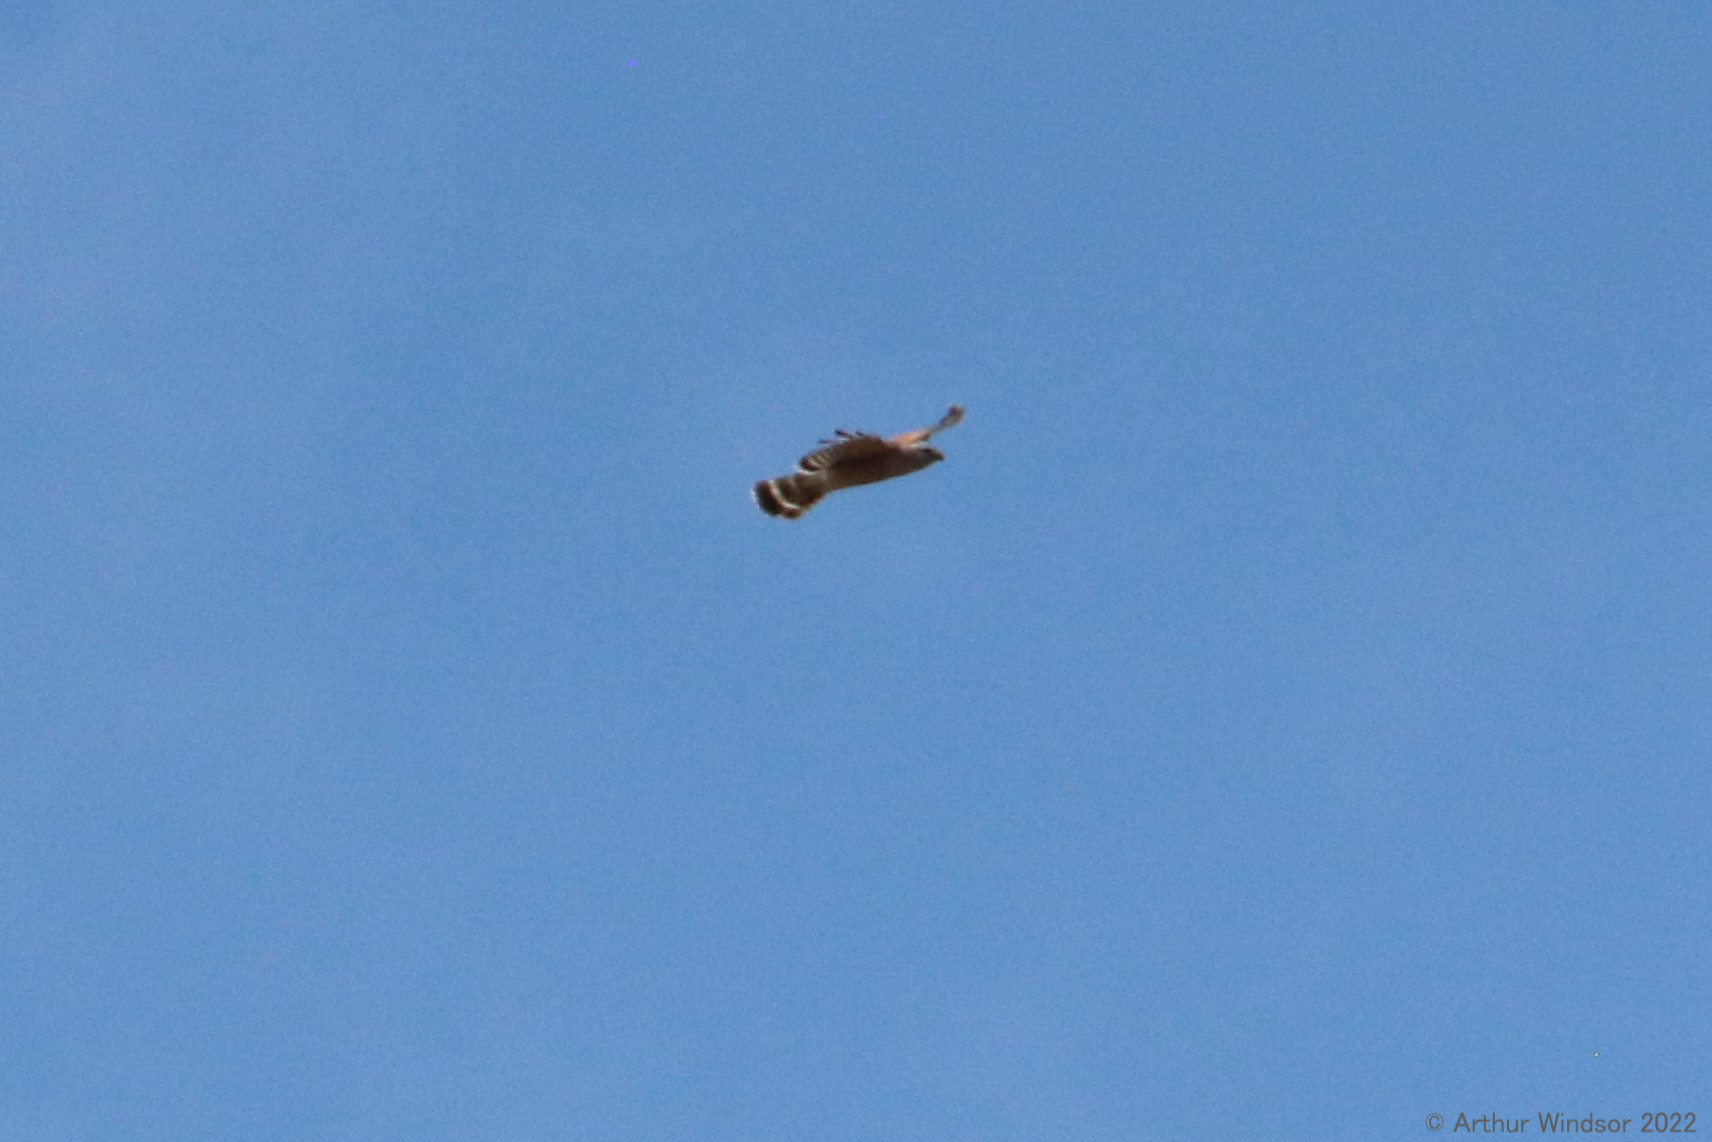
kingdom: Animalia
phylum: Chordata
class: Aves
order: Accipitriformes
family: Accipitridae
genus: Buteo
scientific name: Buteo lineatus
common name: Red-shouldered hawk
